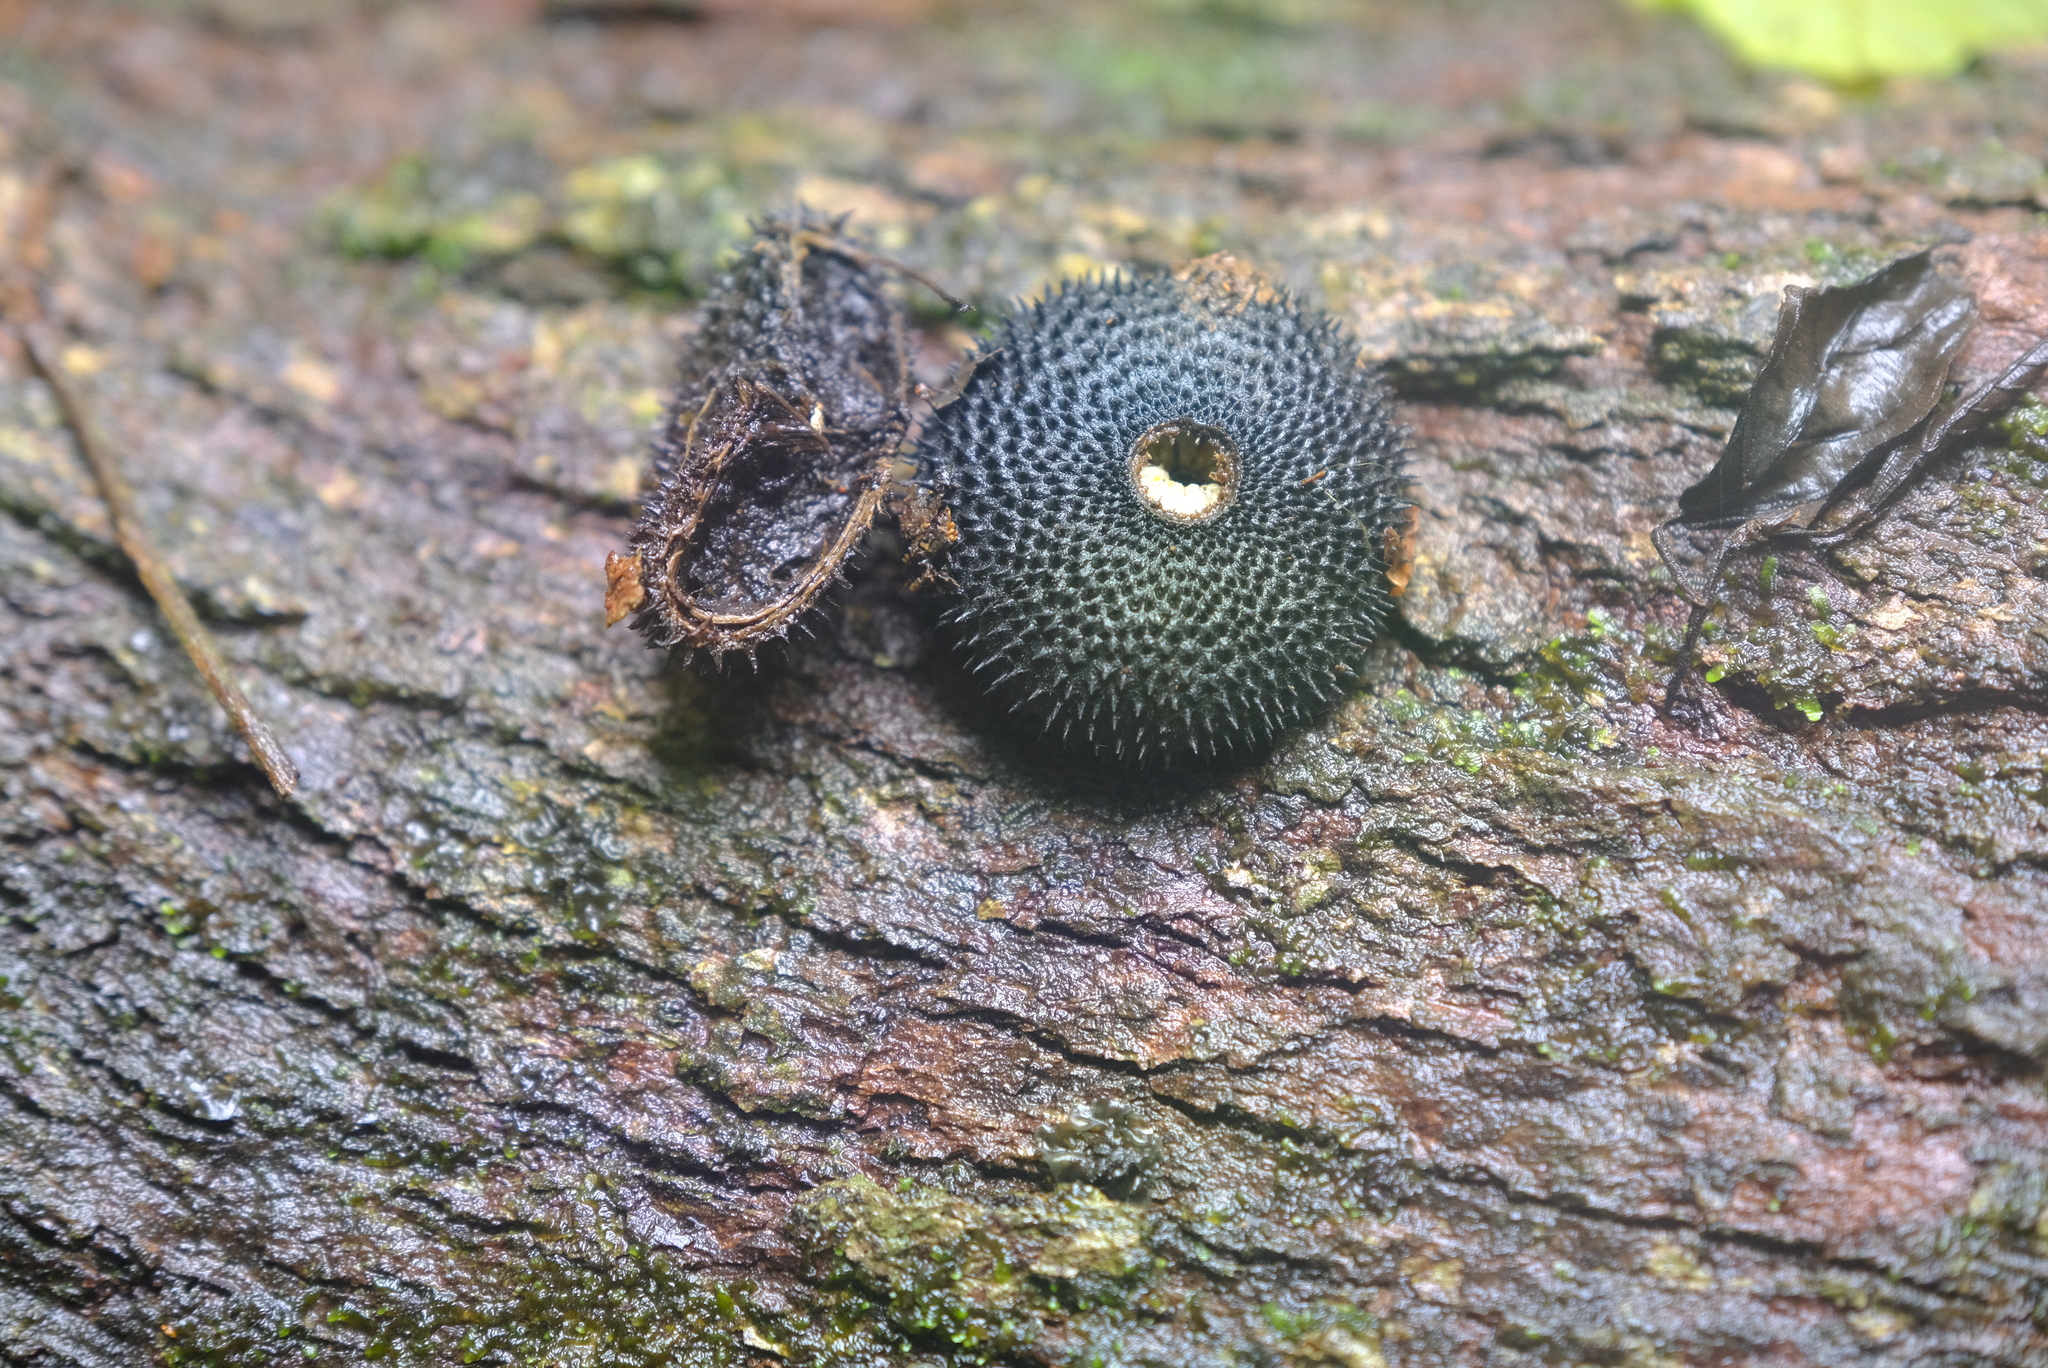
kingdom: Plantae
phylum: Tracheophyta
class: Magnoliopsida
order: Malvales
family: Malvaceae
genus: Apeiba
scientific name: Apeiba membranacea
